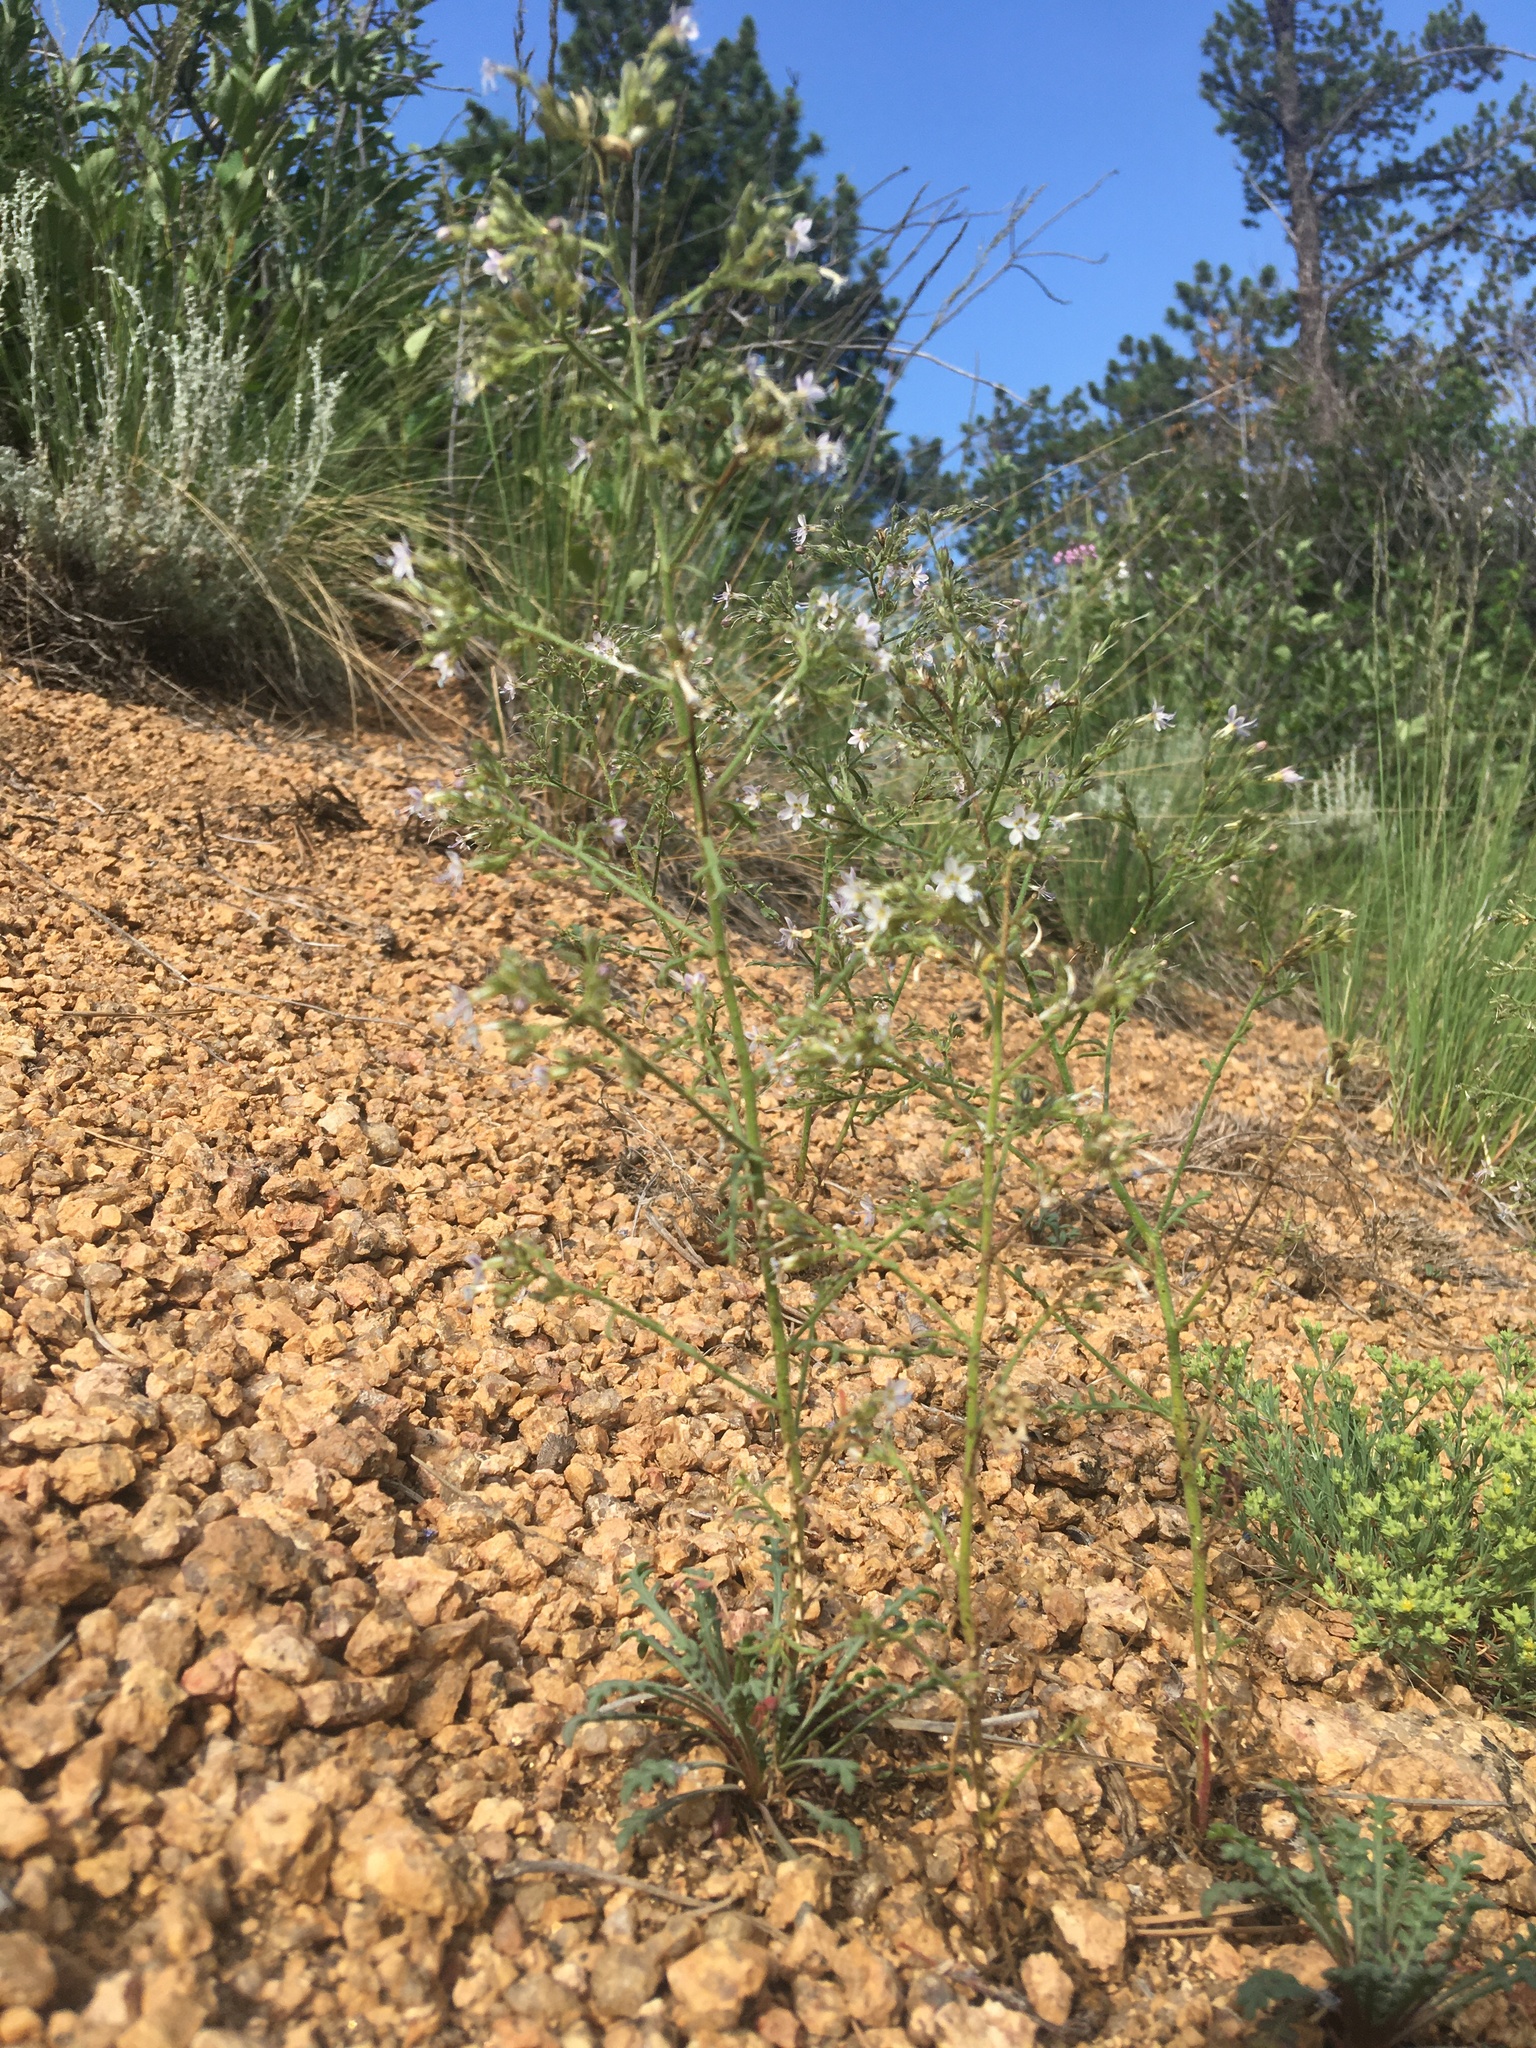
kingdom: Plantae
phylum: Tracheophyta
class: Magnoliopsida
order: Ericales
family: Polemoniaceae
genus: Aliciella
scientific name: Aliciella pinnatifida
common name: Sticky gilia
